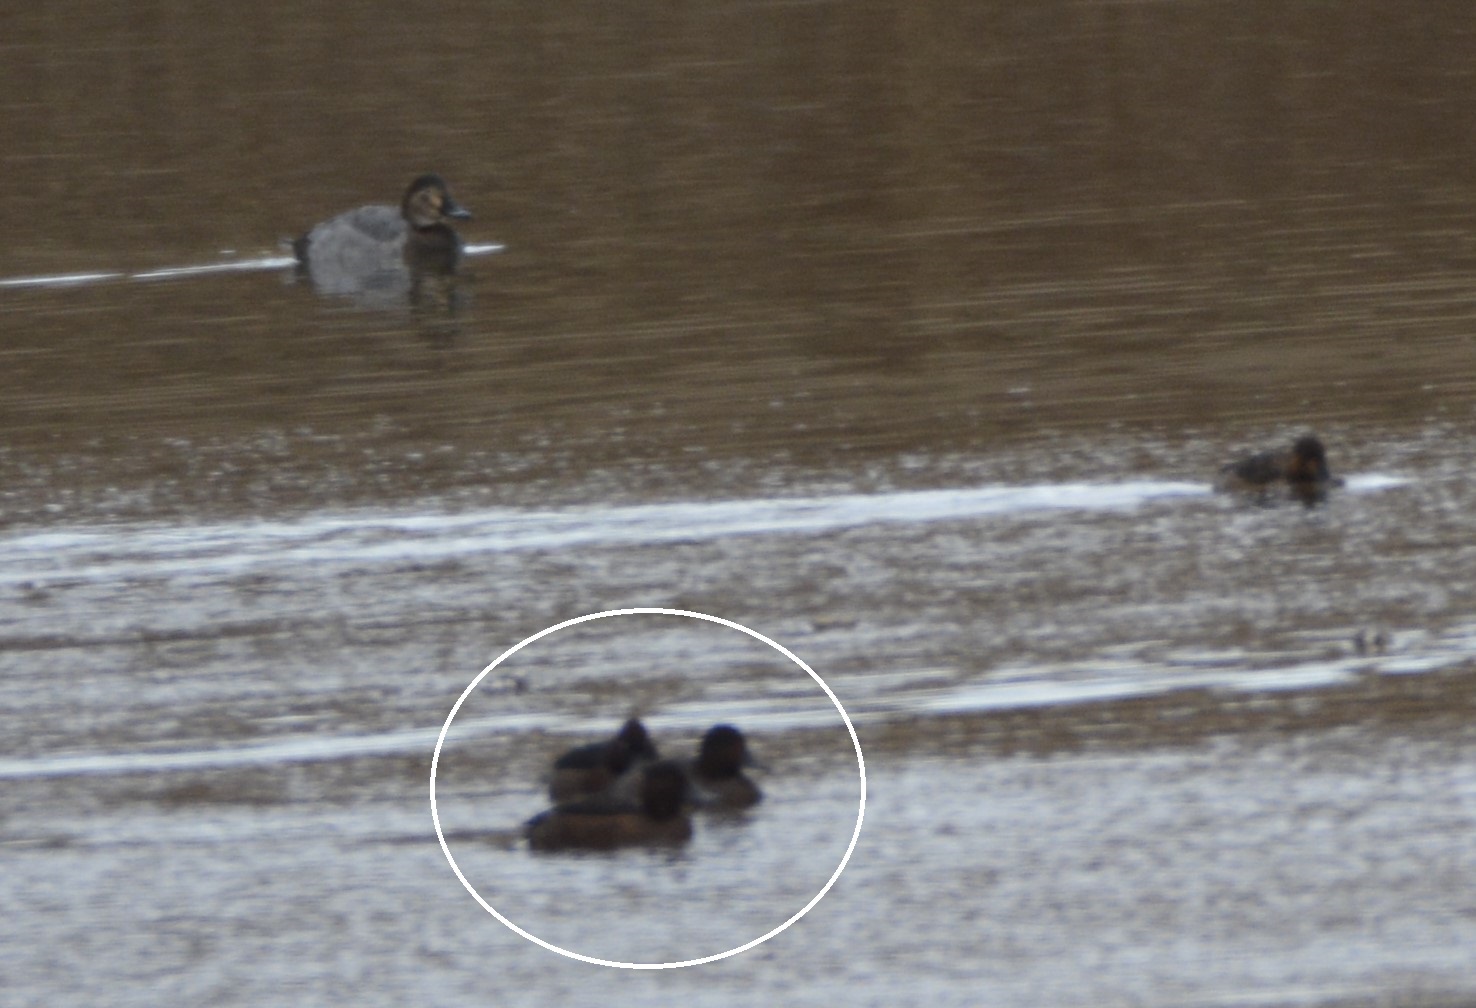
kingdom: Animalia
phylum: Chordata
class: Aves
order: Anseriformes
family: Anatidae
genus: Aythya
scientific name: Aythya nyroca
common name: Ferruginous duck
